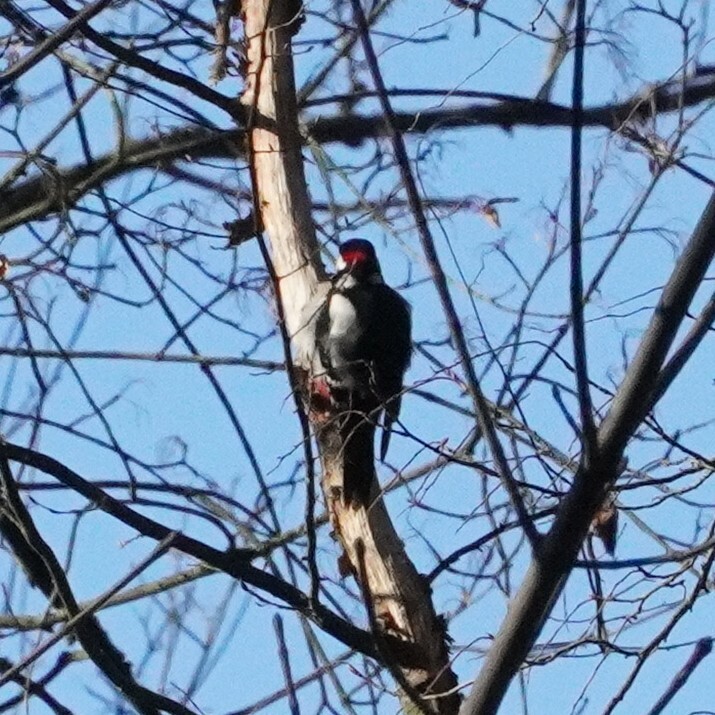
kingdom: Animalia
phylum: Chordata
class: Aves
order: Piciformes
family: Picidae
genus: Dendrocopos
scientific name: Dendrocopos major
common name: Great spotted woodpecker
